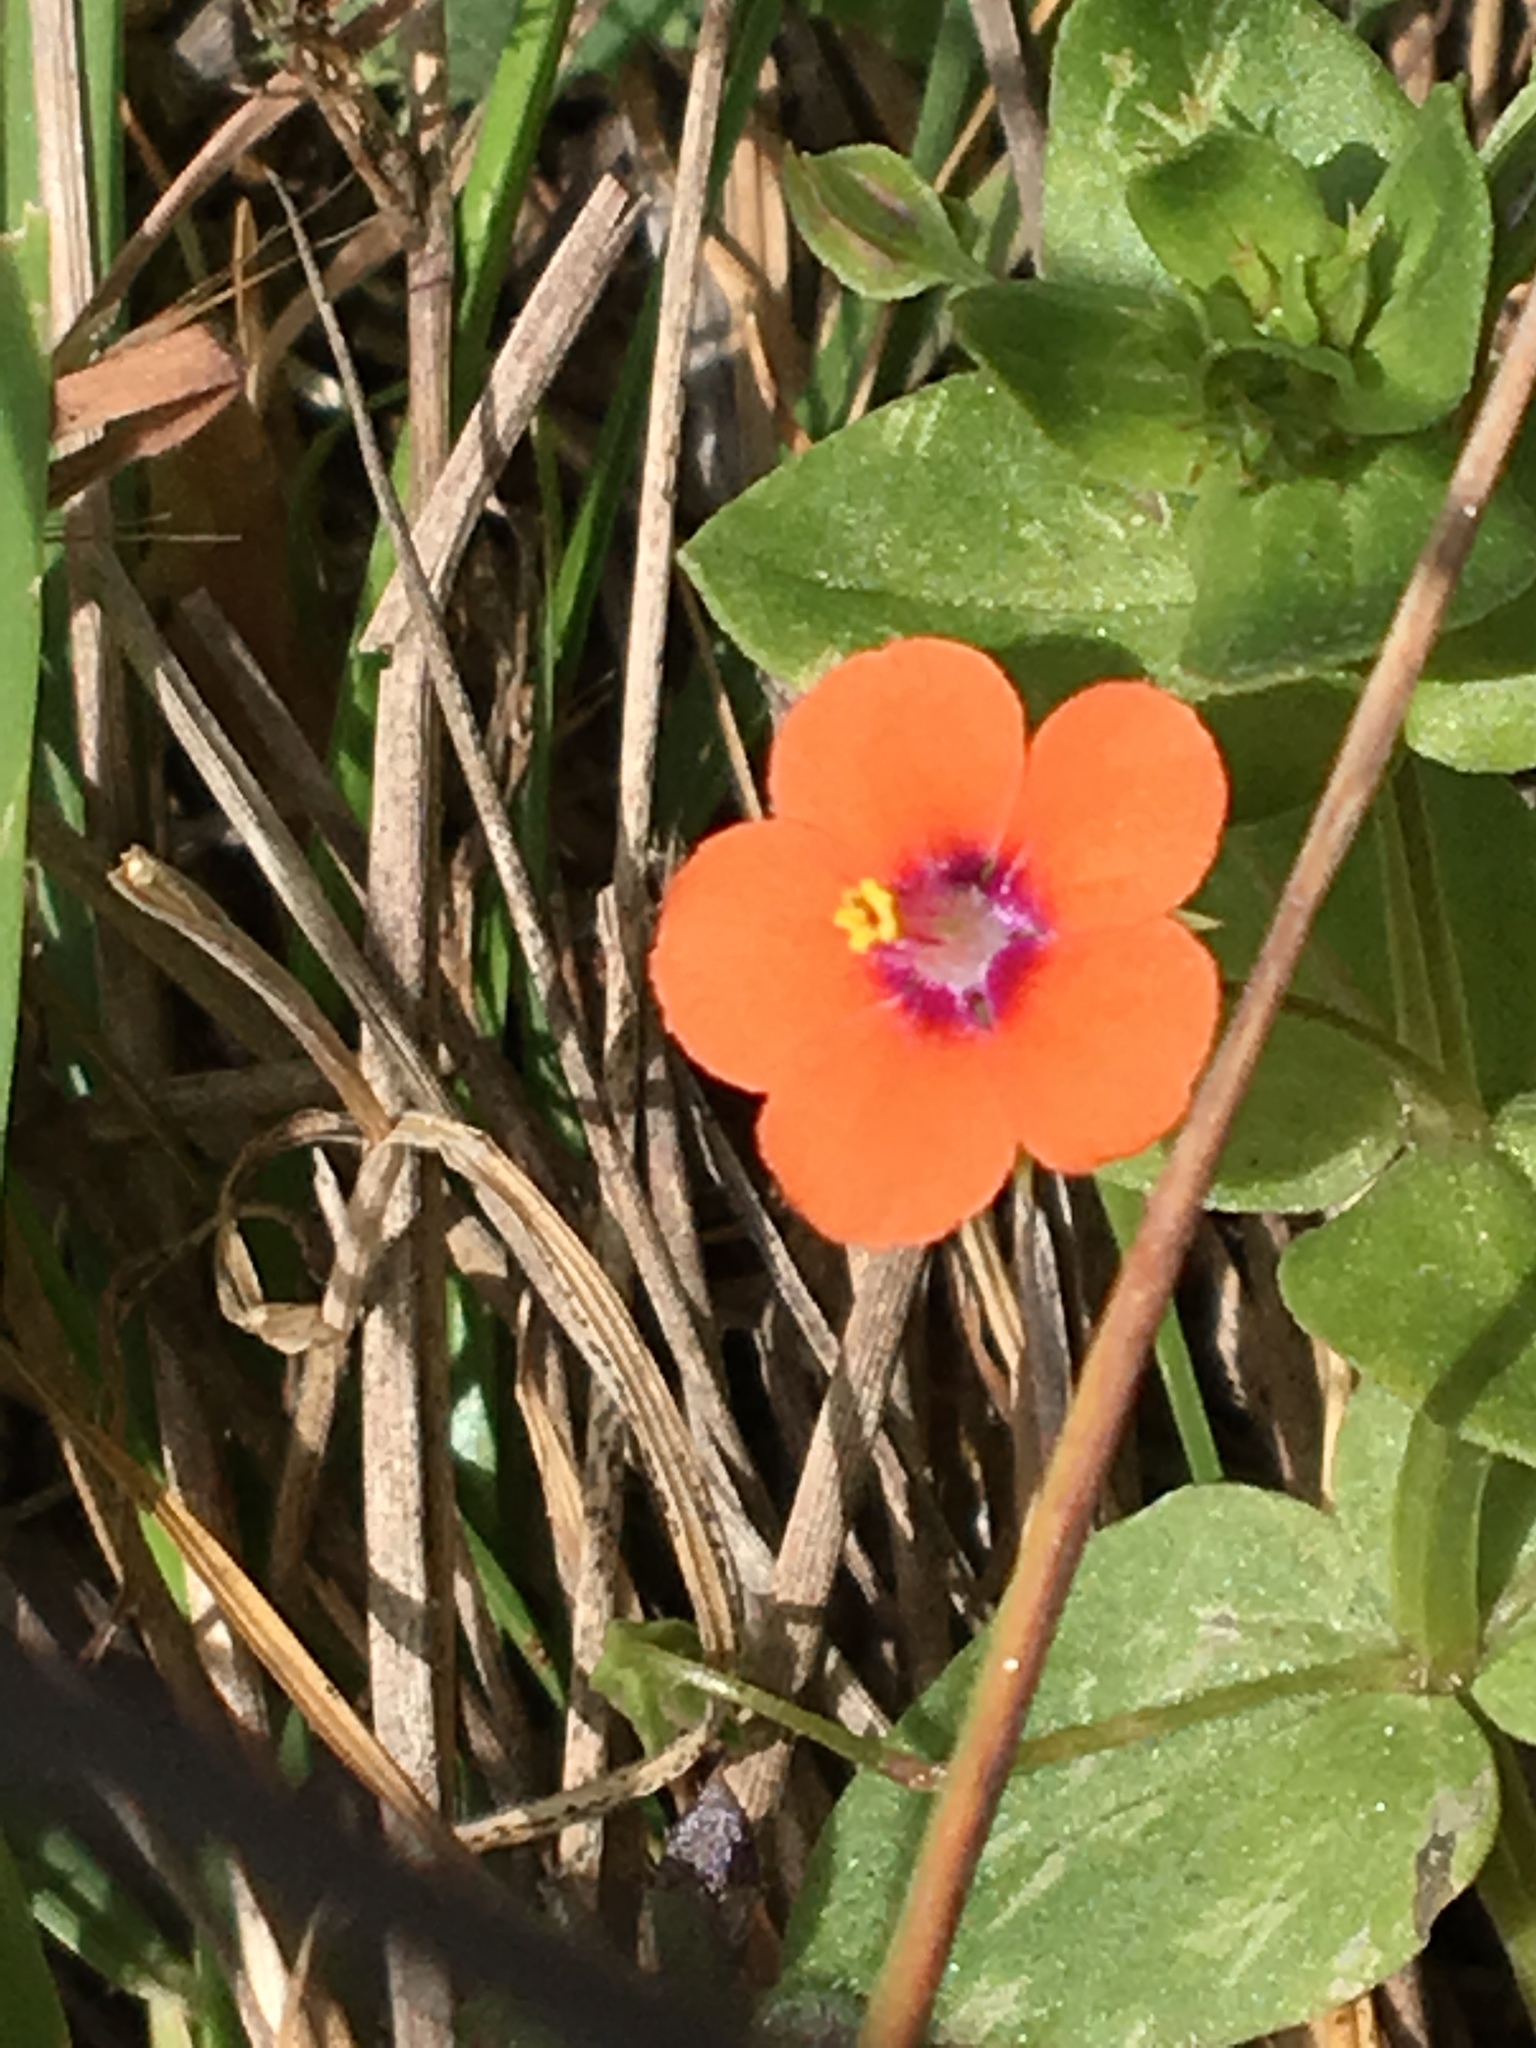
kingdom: Plantae
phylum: Tracheophyta
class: Magnoliopsida
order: Ericales
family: Primulaceae
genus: Lysimachia
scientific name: Lysimachia arvensis
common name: Scarlet pimpernel
